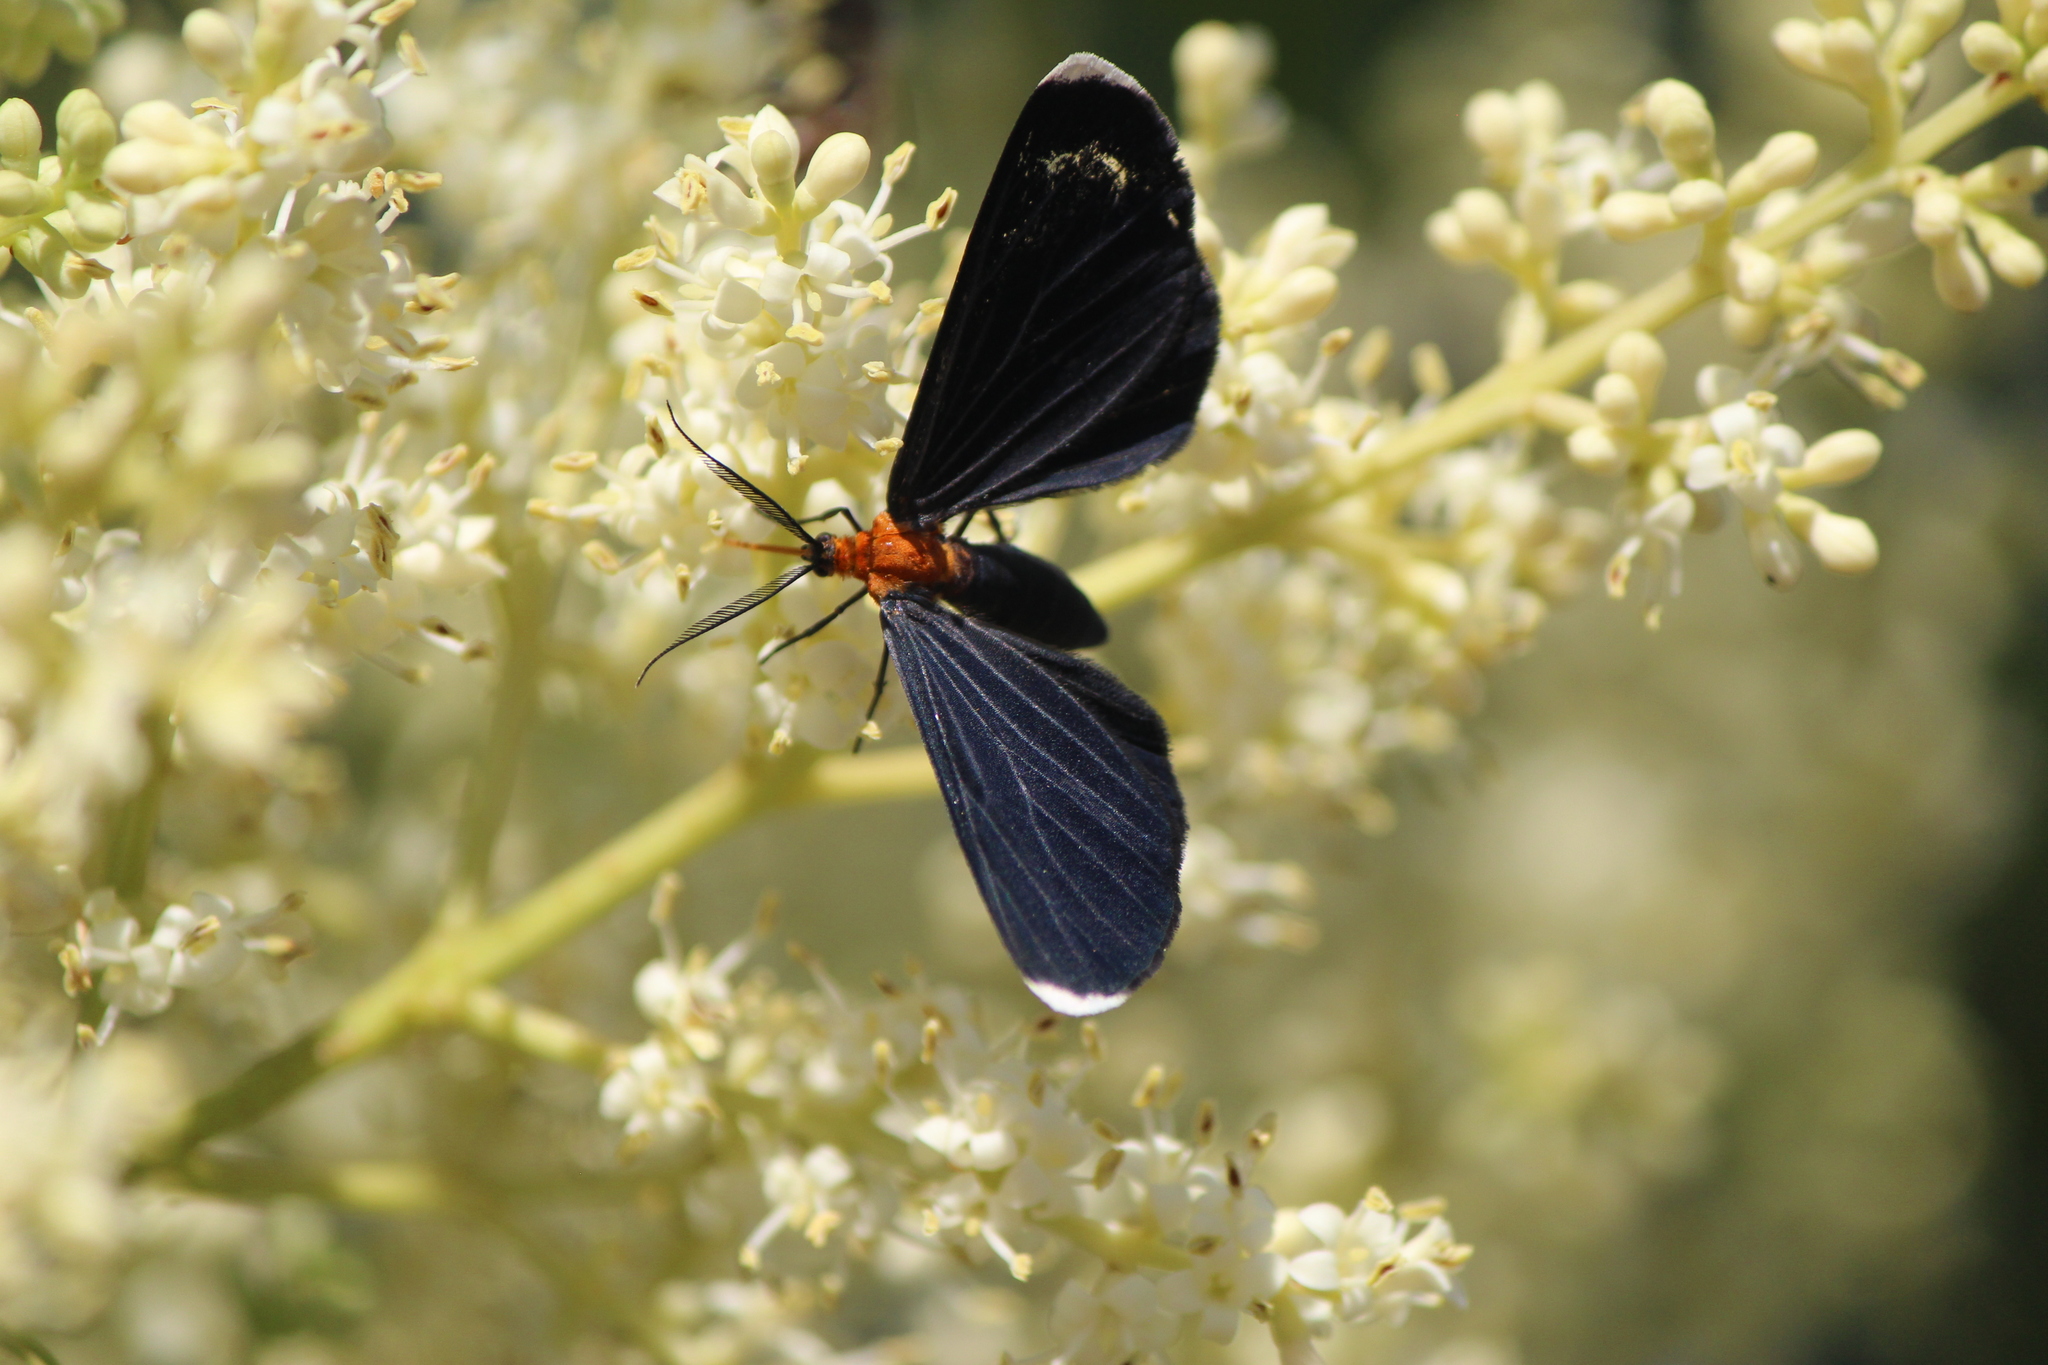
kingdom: Animalia
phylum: Arthropoda
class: Insecta
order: Lepidoptera
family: Geometridae
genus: Melanchroia
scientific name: Melanchroia chephise
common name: White-tipped black
